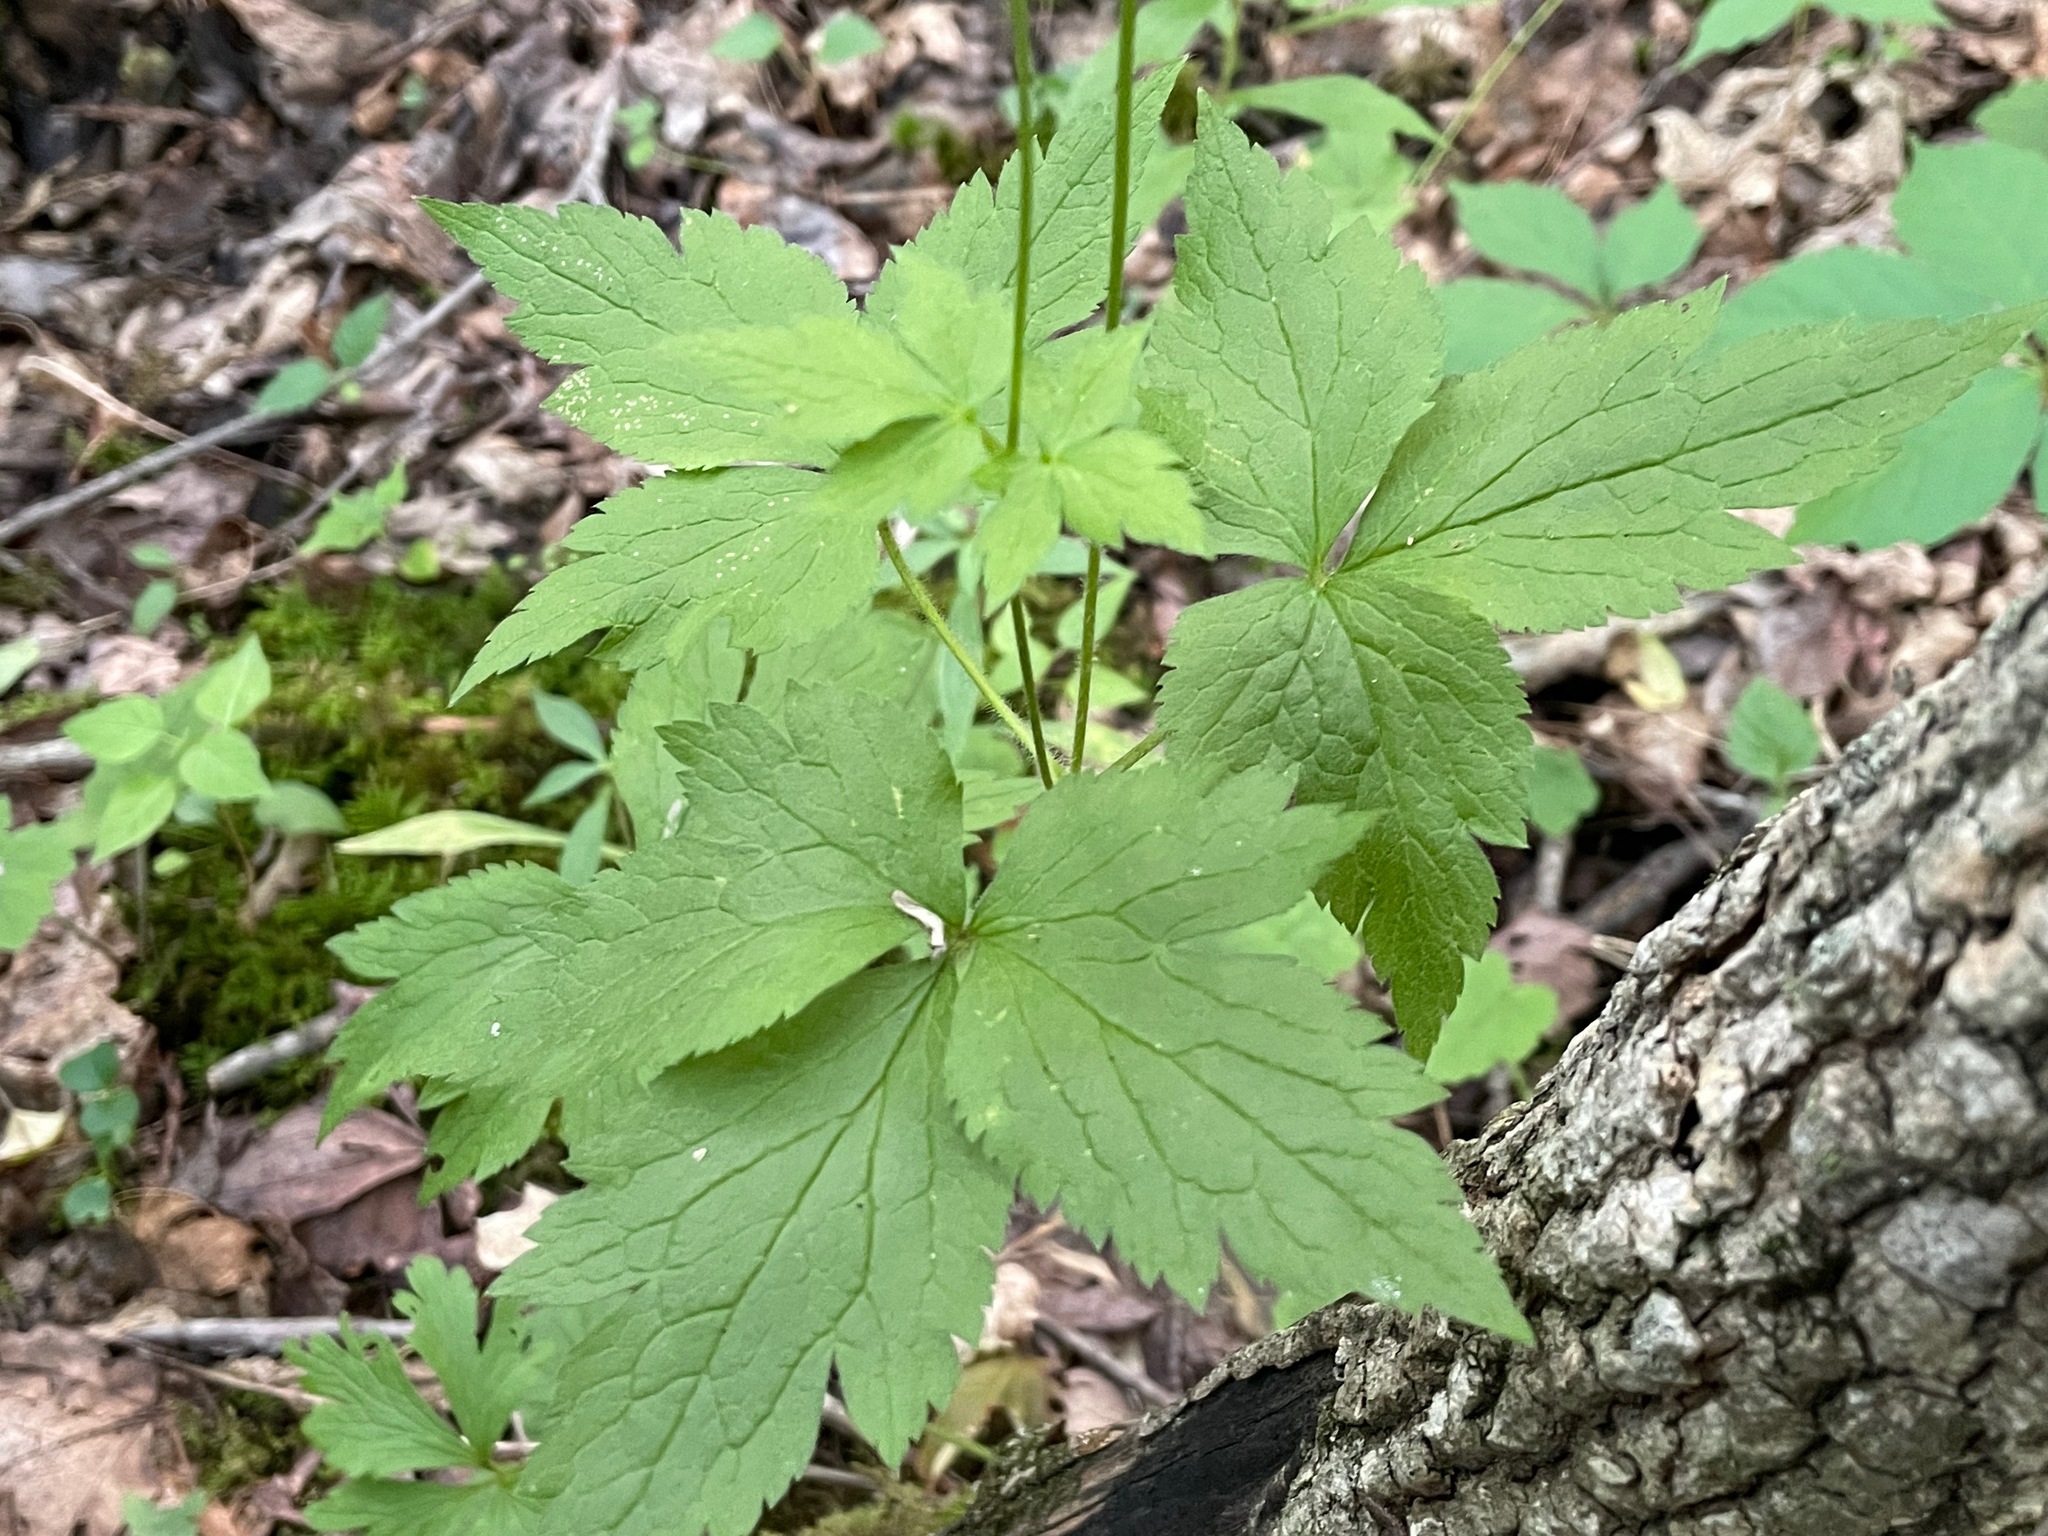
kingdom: Plantae
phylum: Tracheophyta
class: Magnoliopsida
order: Ranunculales
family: Ranunculaceae
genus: Anemone
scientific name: Anemone virginiana
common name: Tall anemone
